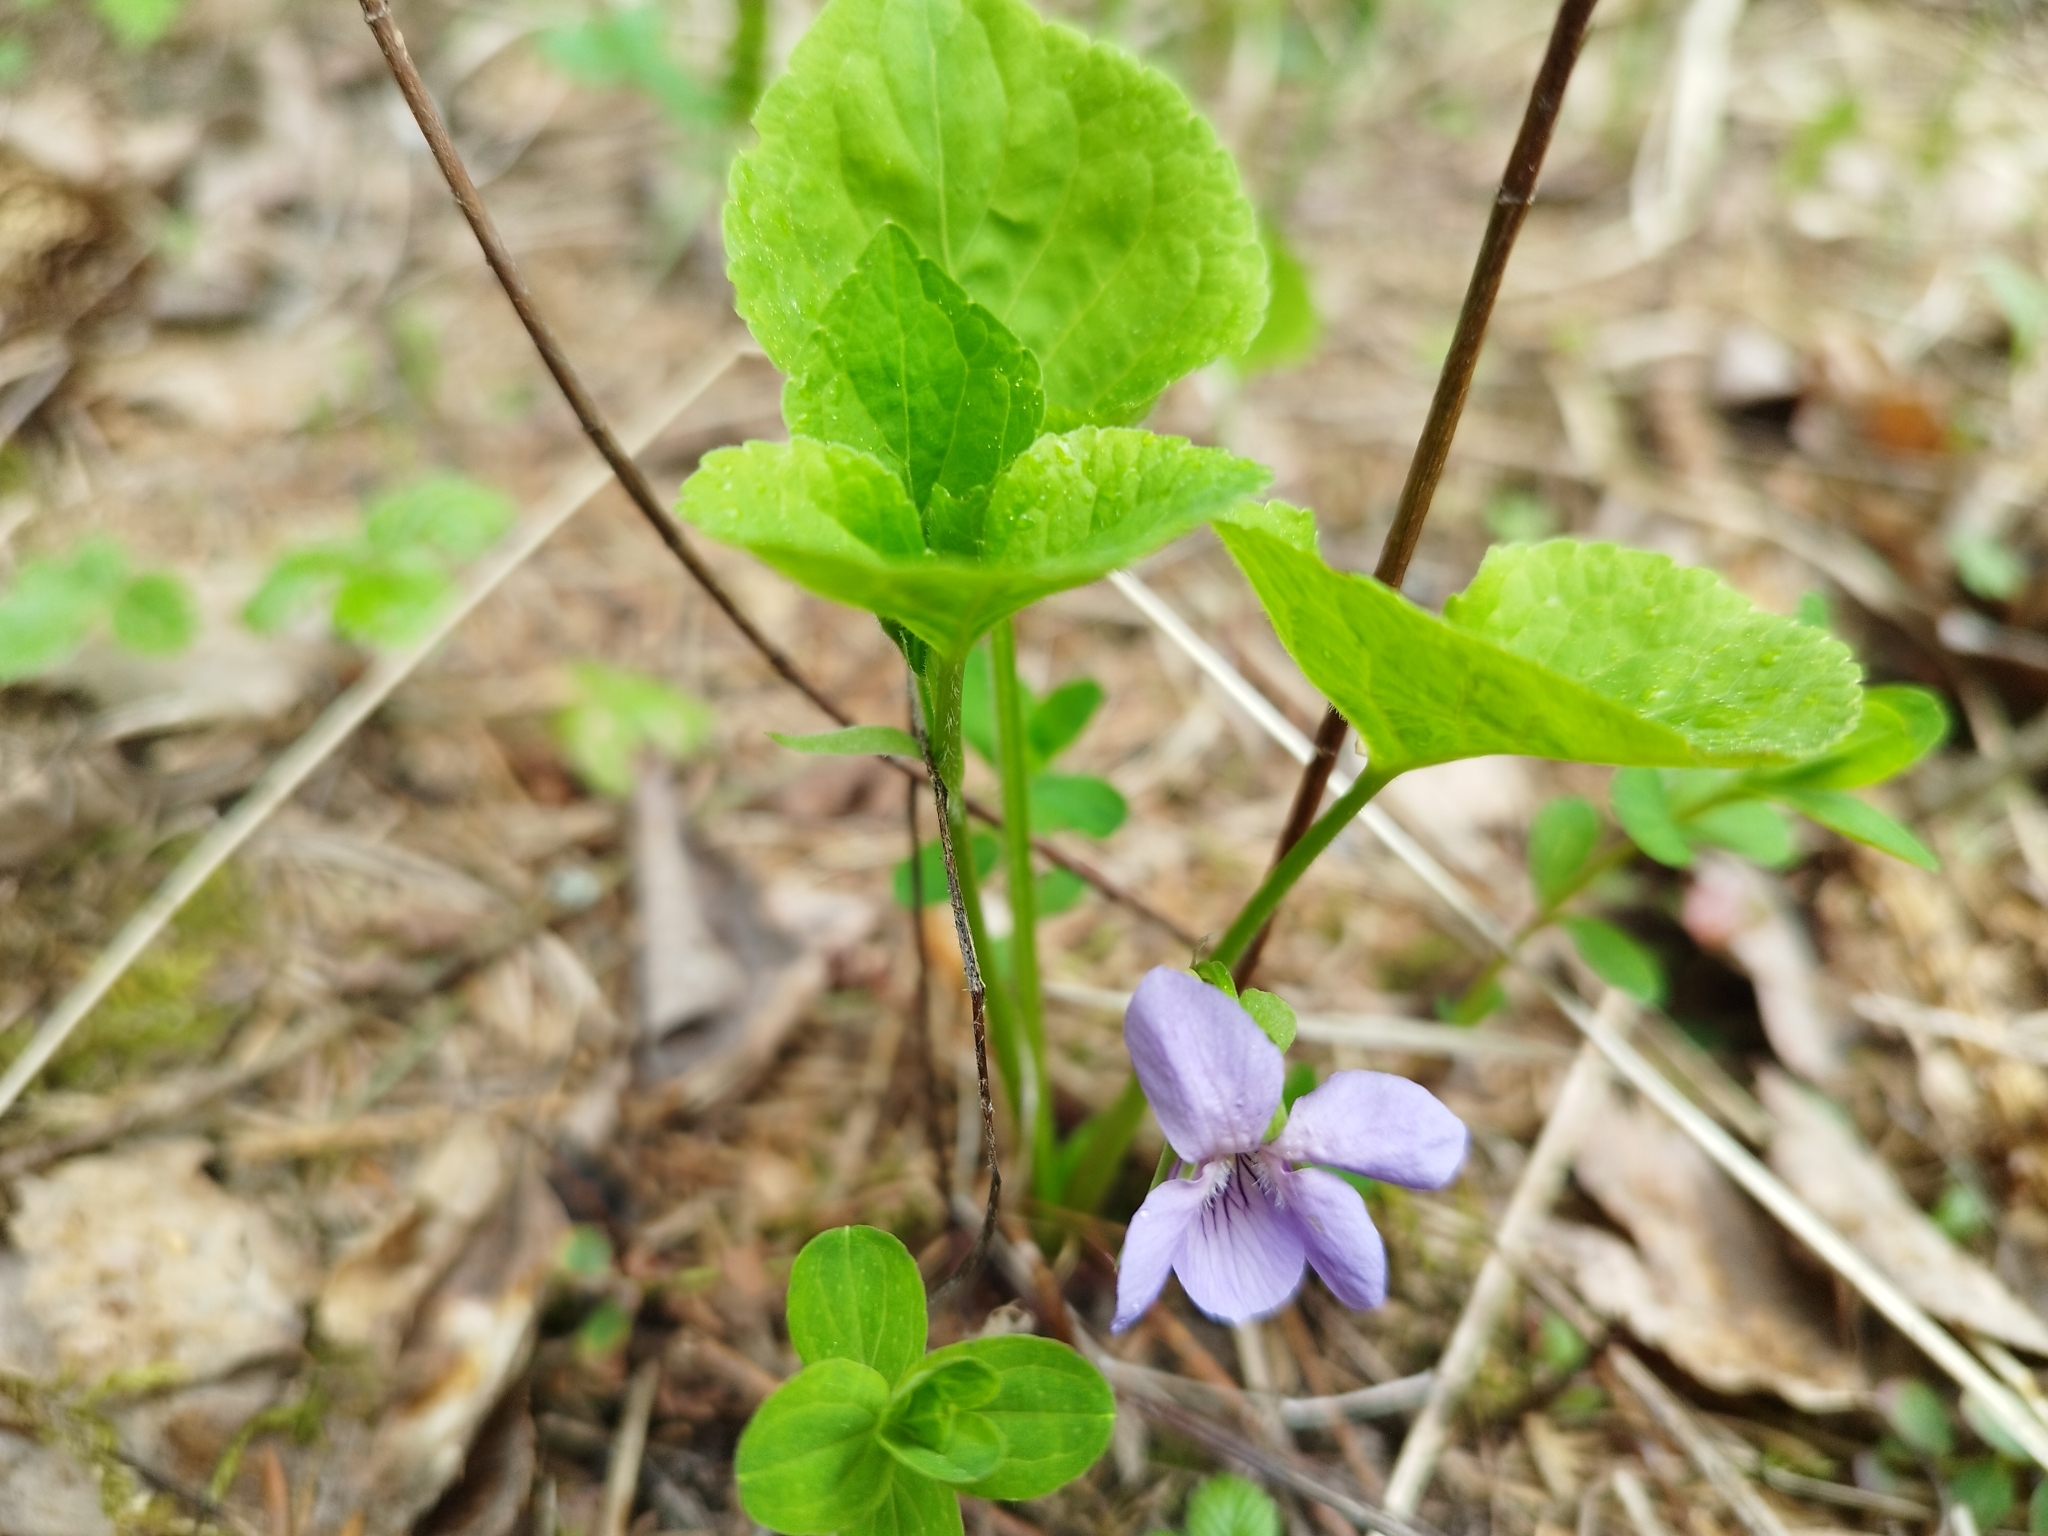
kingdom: Plantae
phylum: Tracheophyta
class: Magnoliopsida
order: Malpighiales
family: Violaceae
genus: Viola
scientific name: Viola mirabilis
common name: Wonder violet
